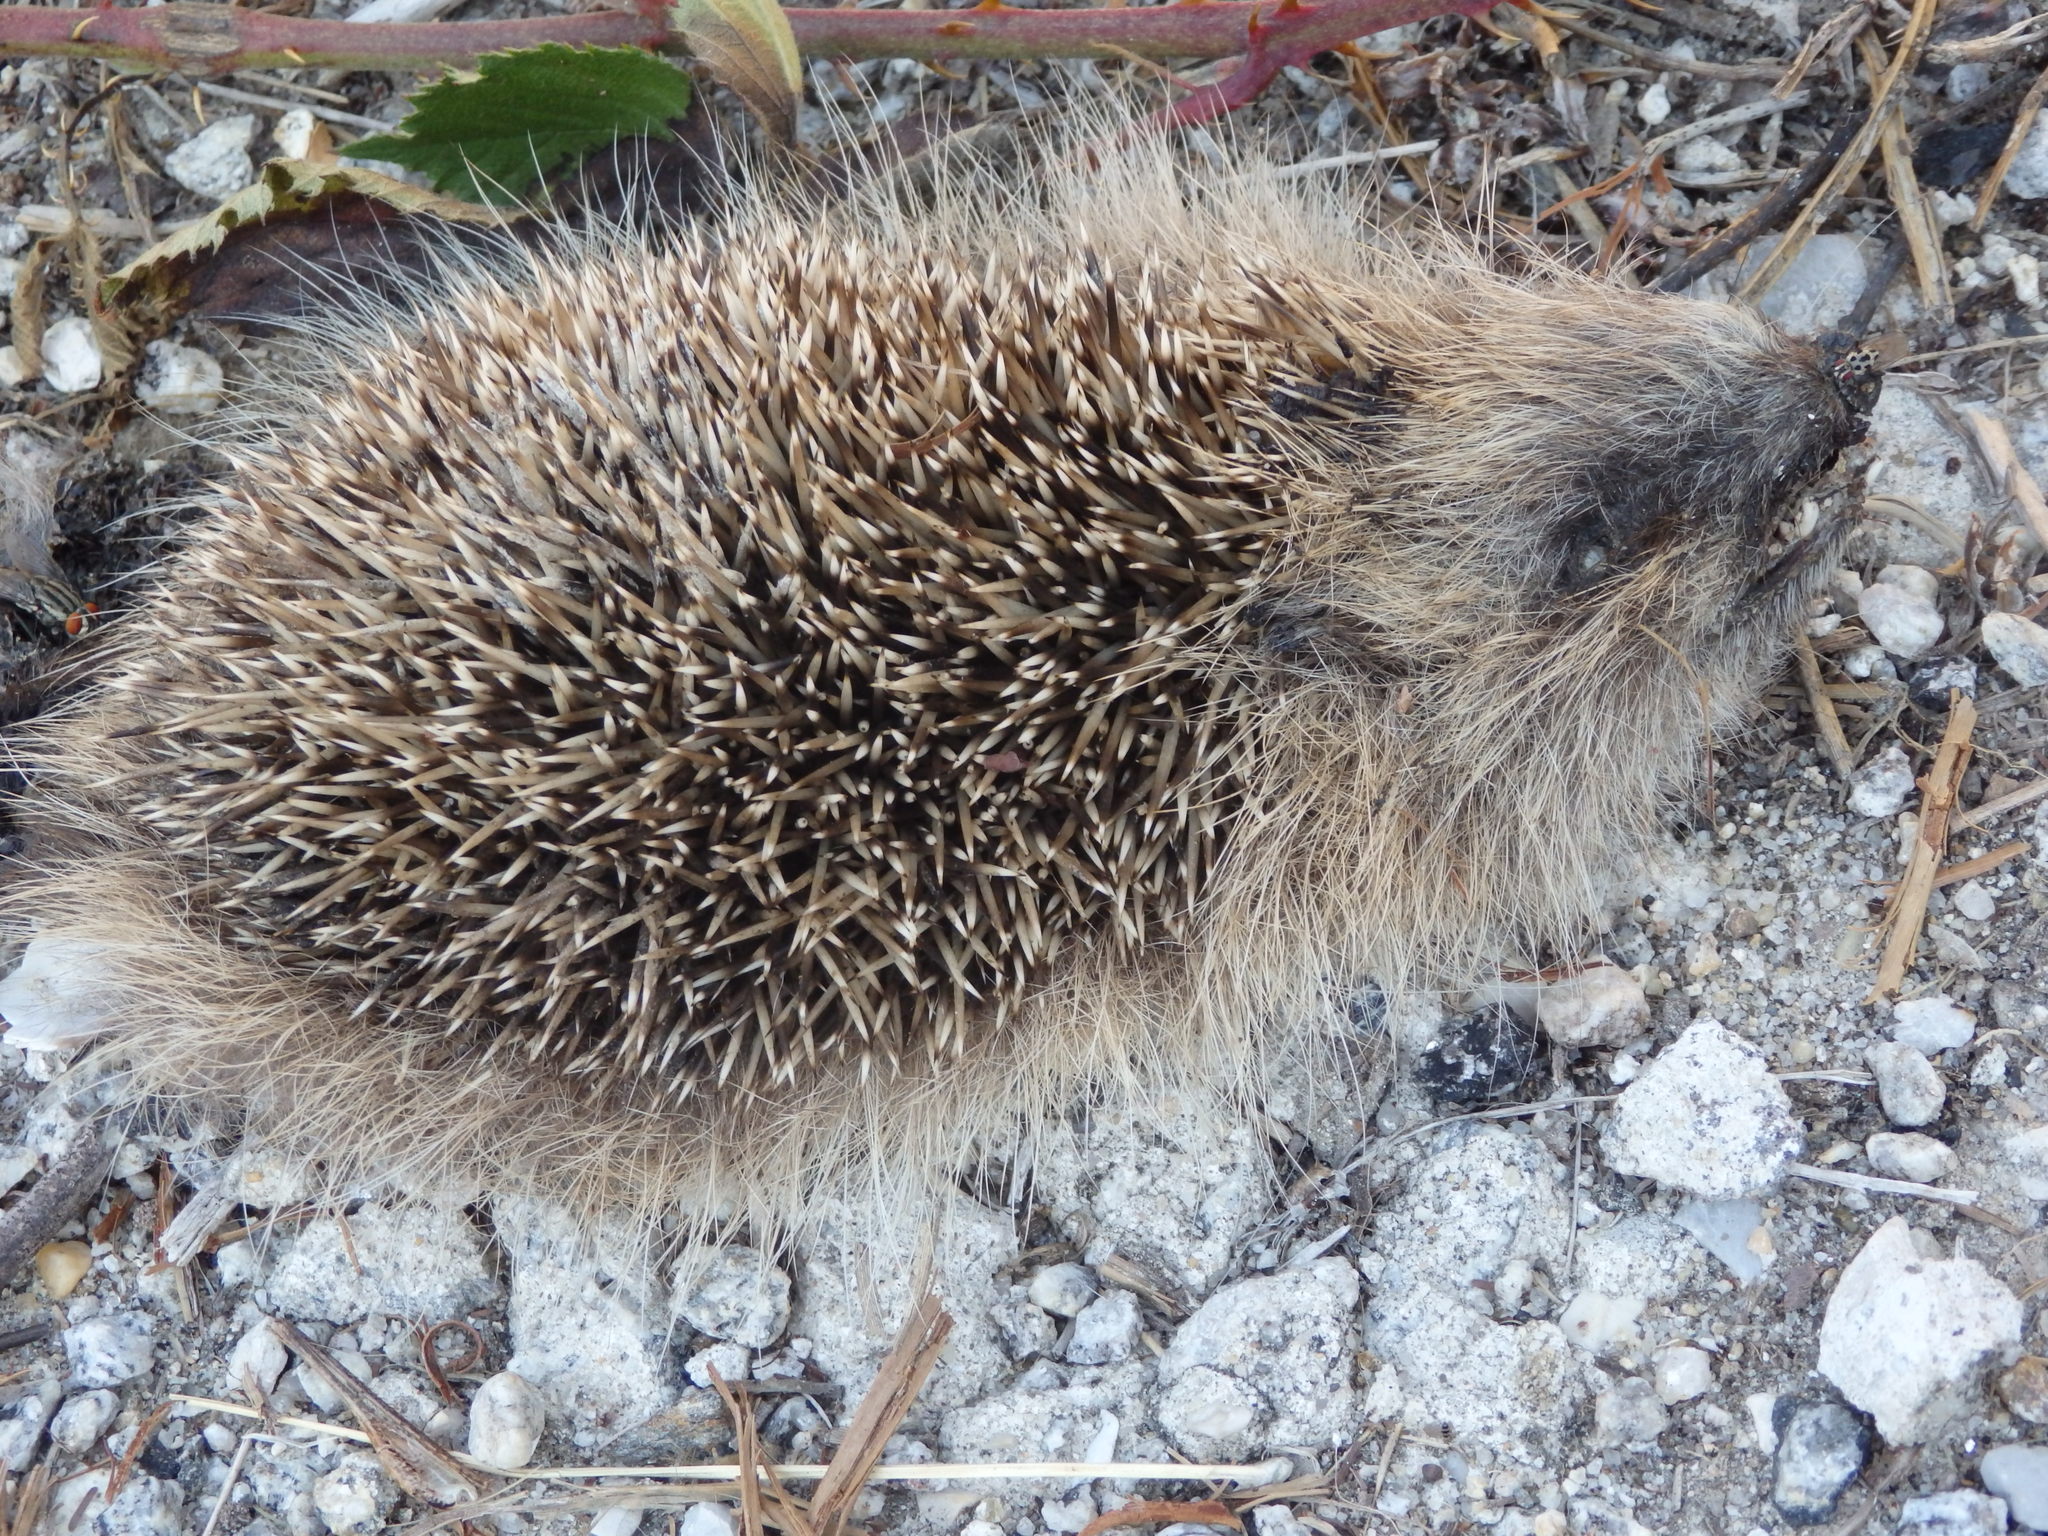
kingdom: Animalia
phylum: Chordata
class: Mammalia
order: Erinaceomorpha
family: Erinaceidae
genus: Erinaceus
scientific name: Erinaceus europaeus
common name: West european hedgehog
